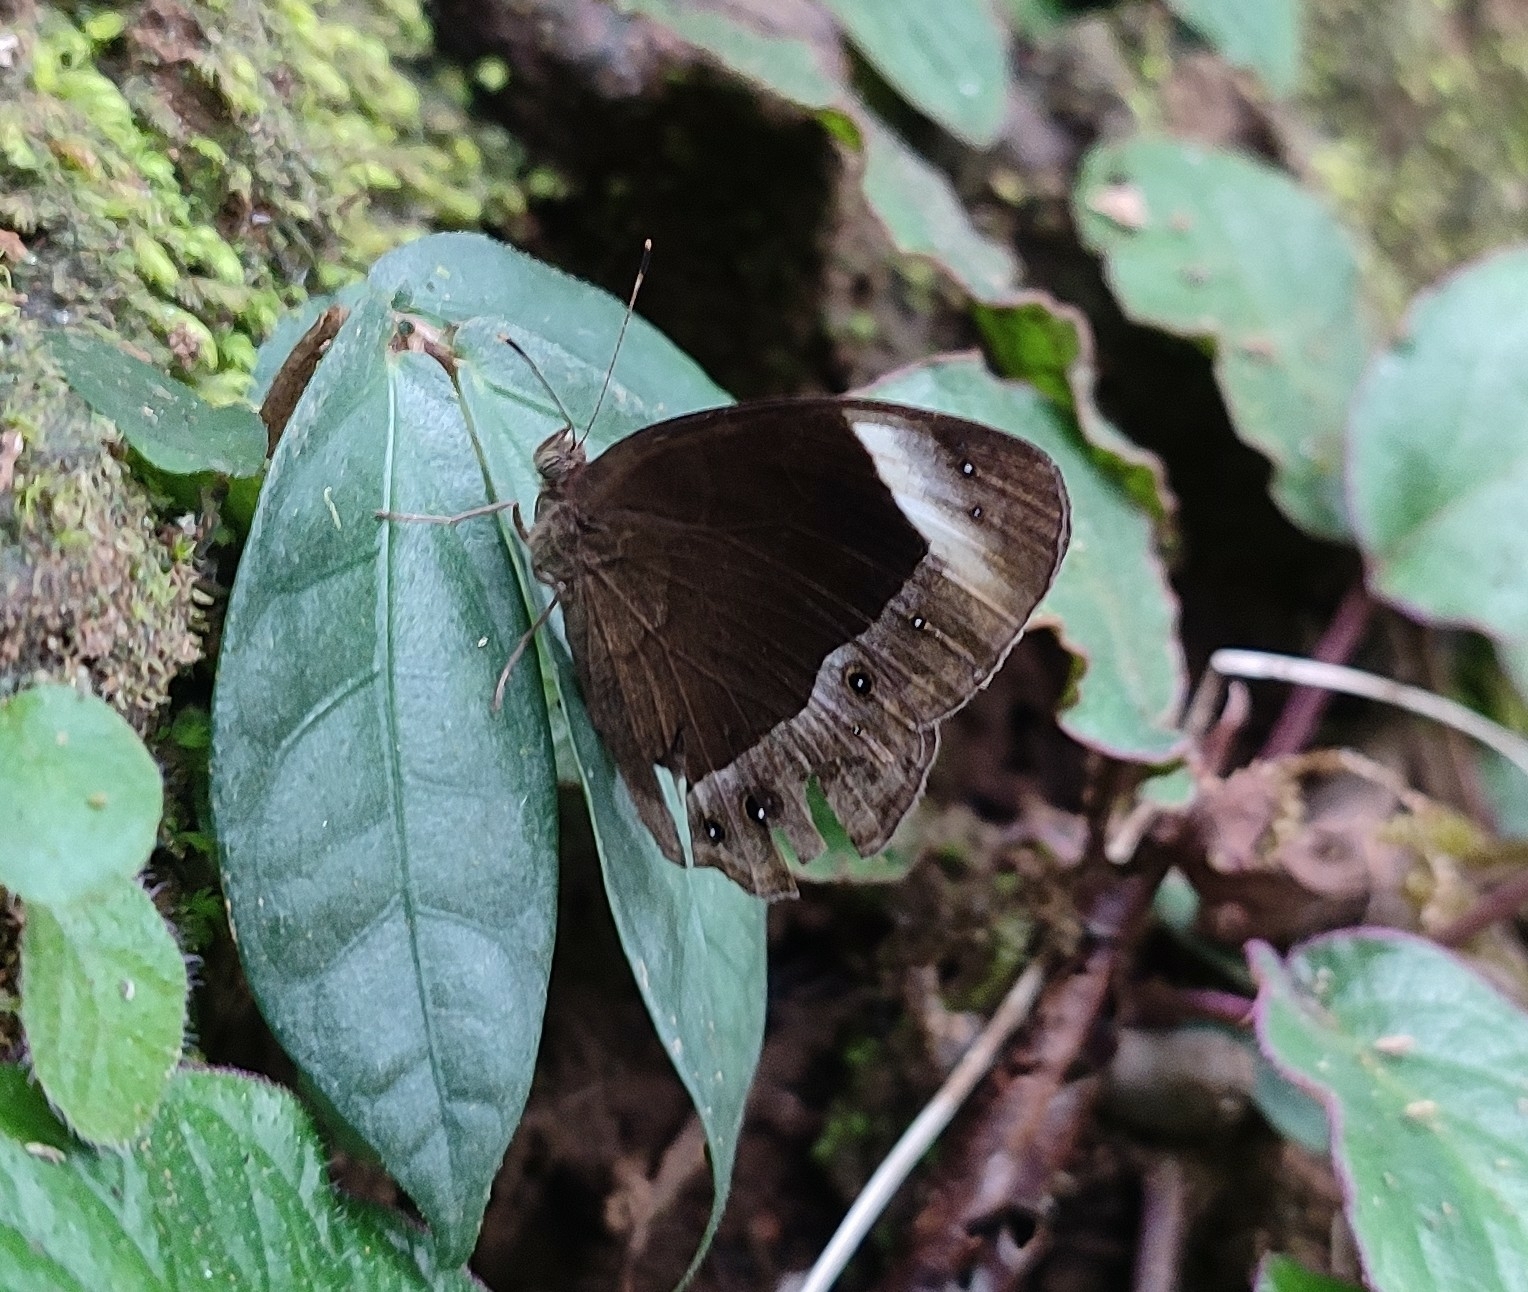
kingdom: Animalia
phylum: Arthropoda
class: Insecta
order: Lepidoptera
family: Nymphalidae
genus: Mycalesis
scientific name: Mycalesis anaxias
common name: White-bar bushbrown
